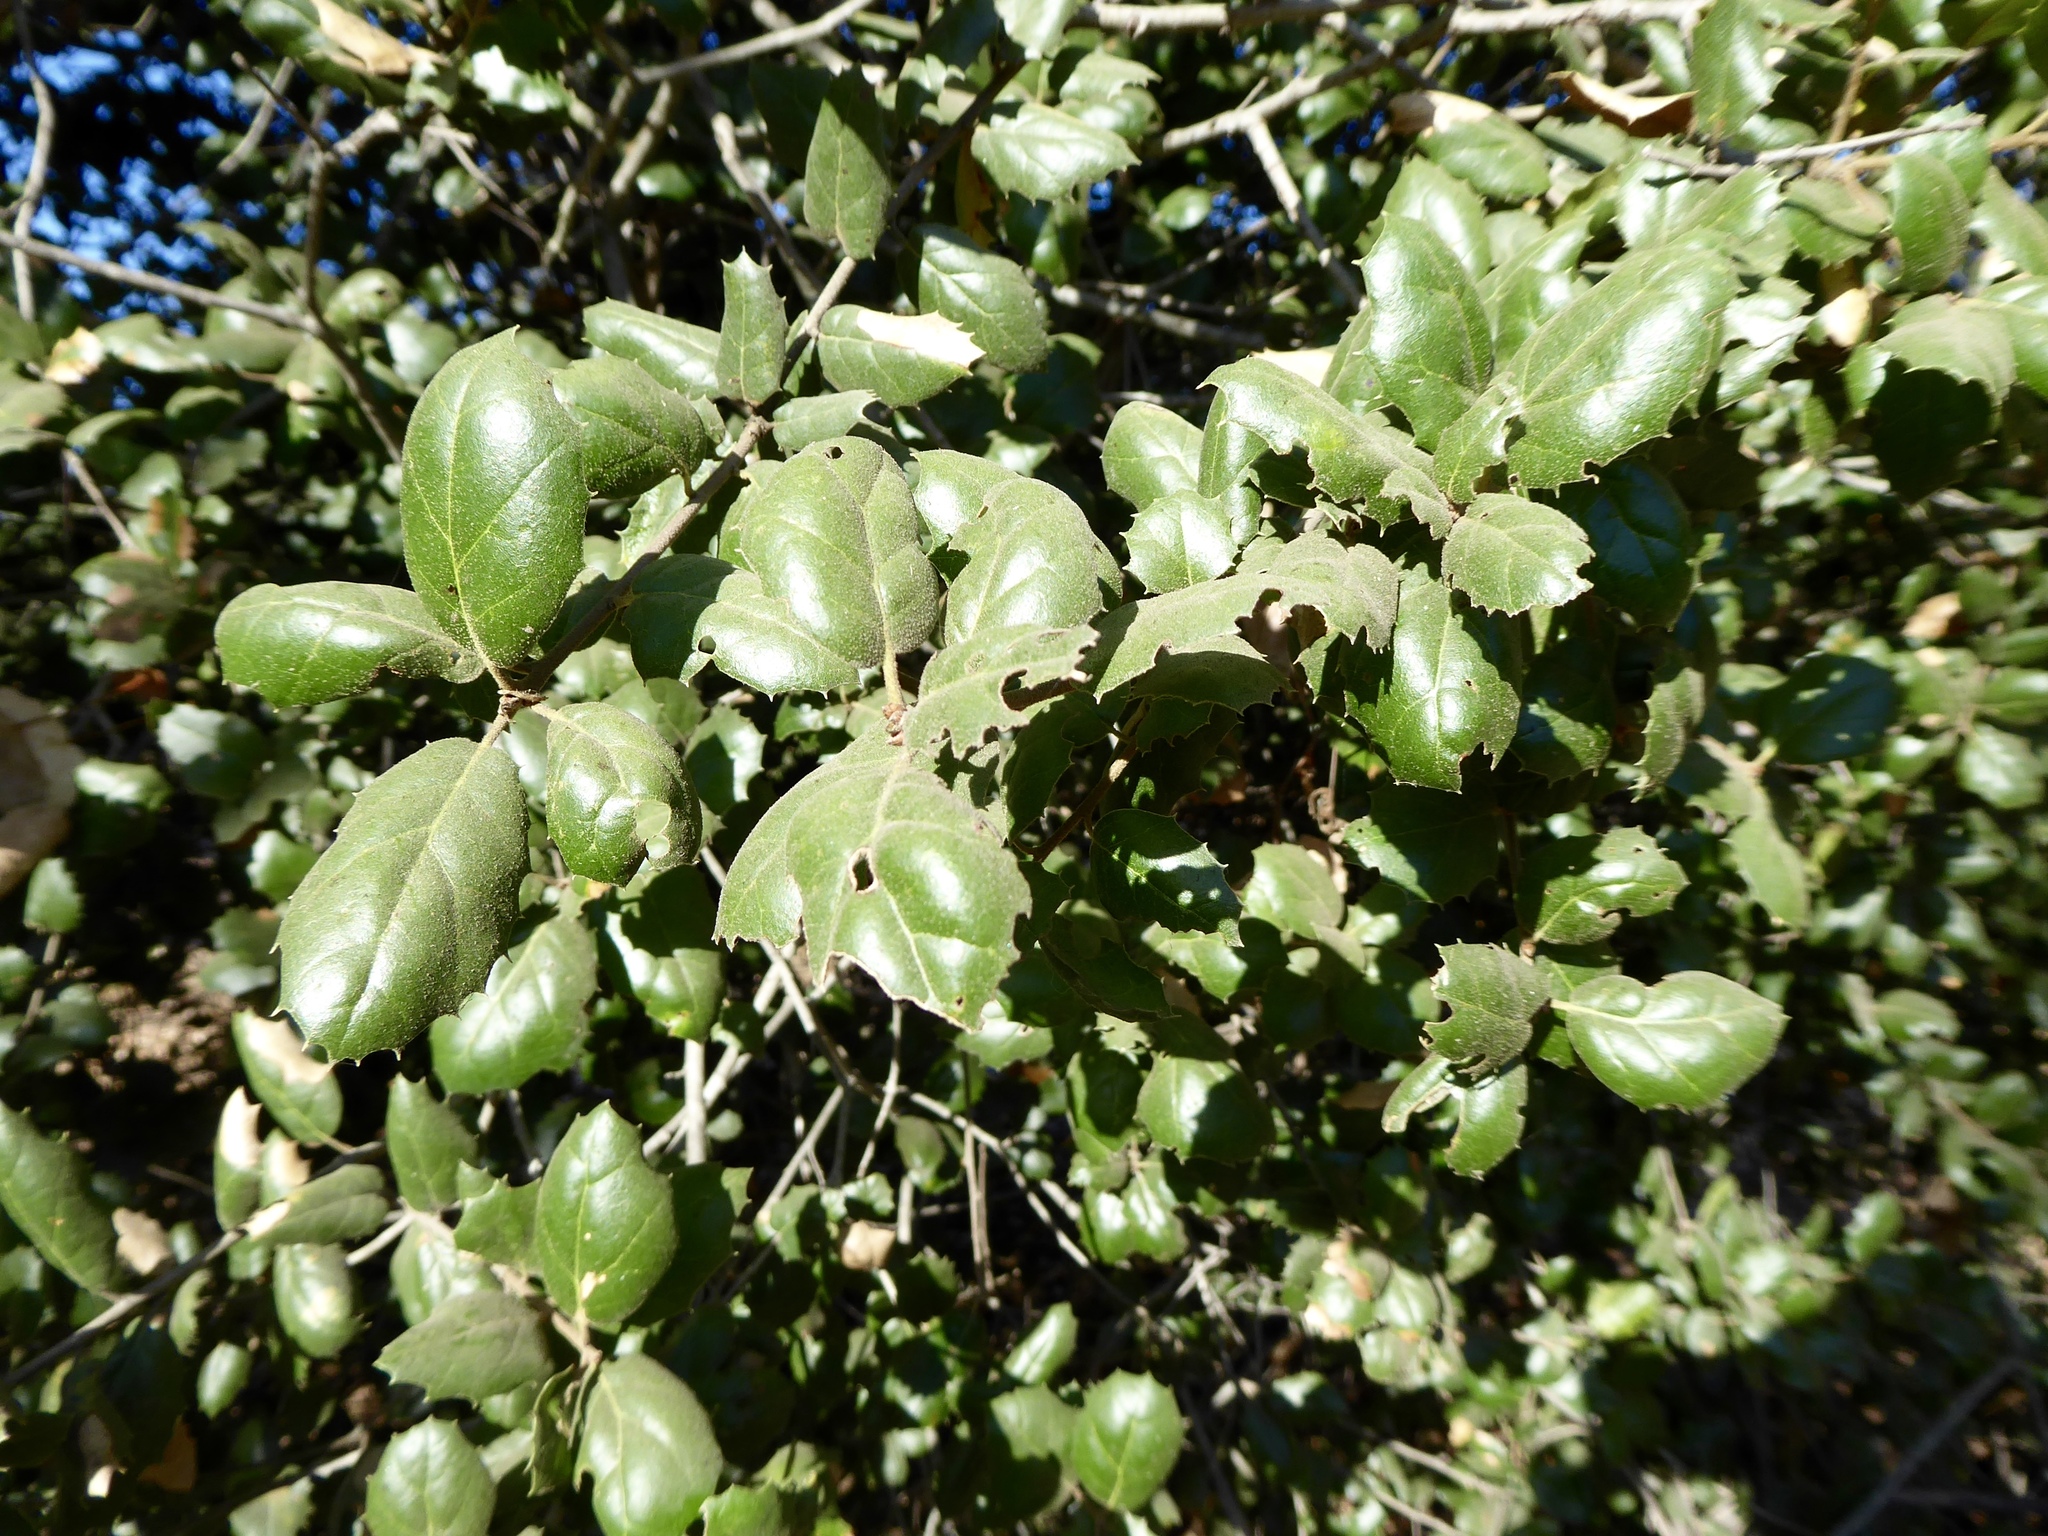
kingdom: Plantae
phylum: Tracheophyta
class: Magnoliopsida
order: Fagales
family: Fagaceae
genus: Quercus
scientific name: Quercus agrifolia
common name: California live oak
